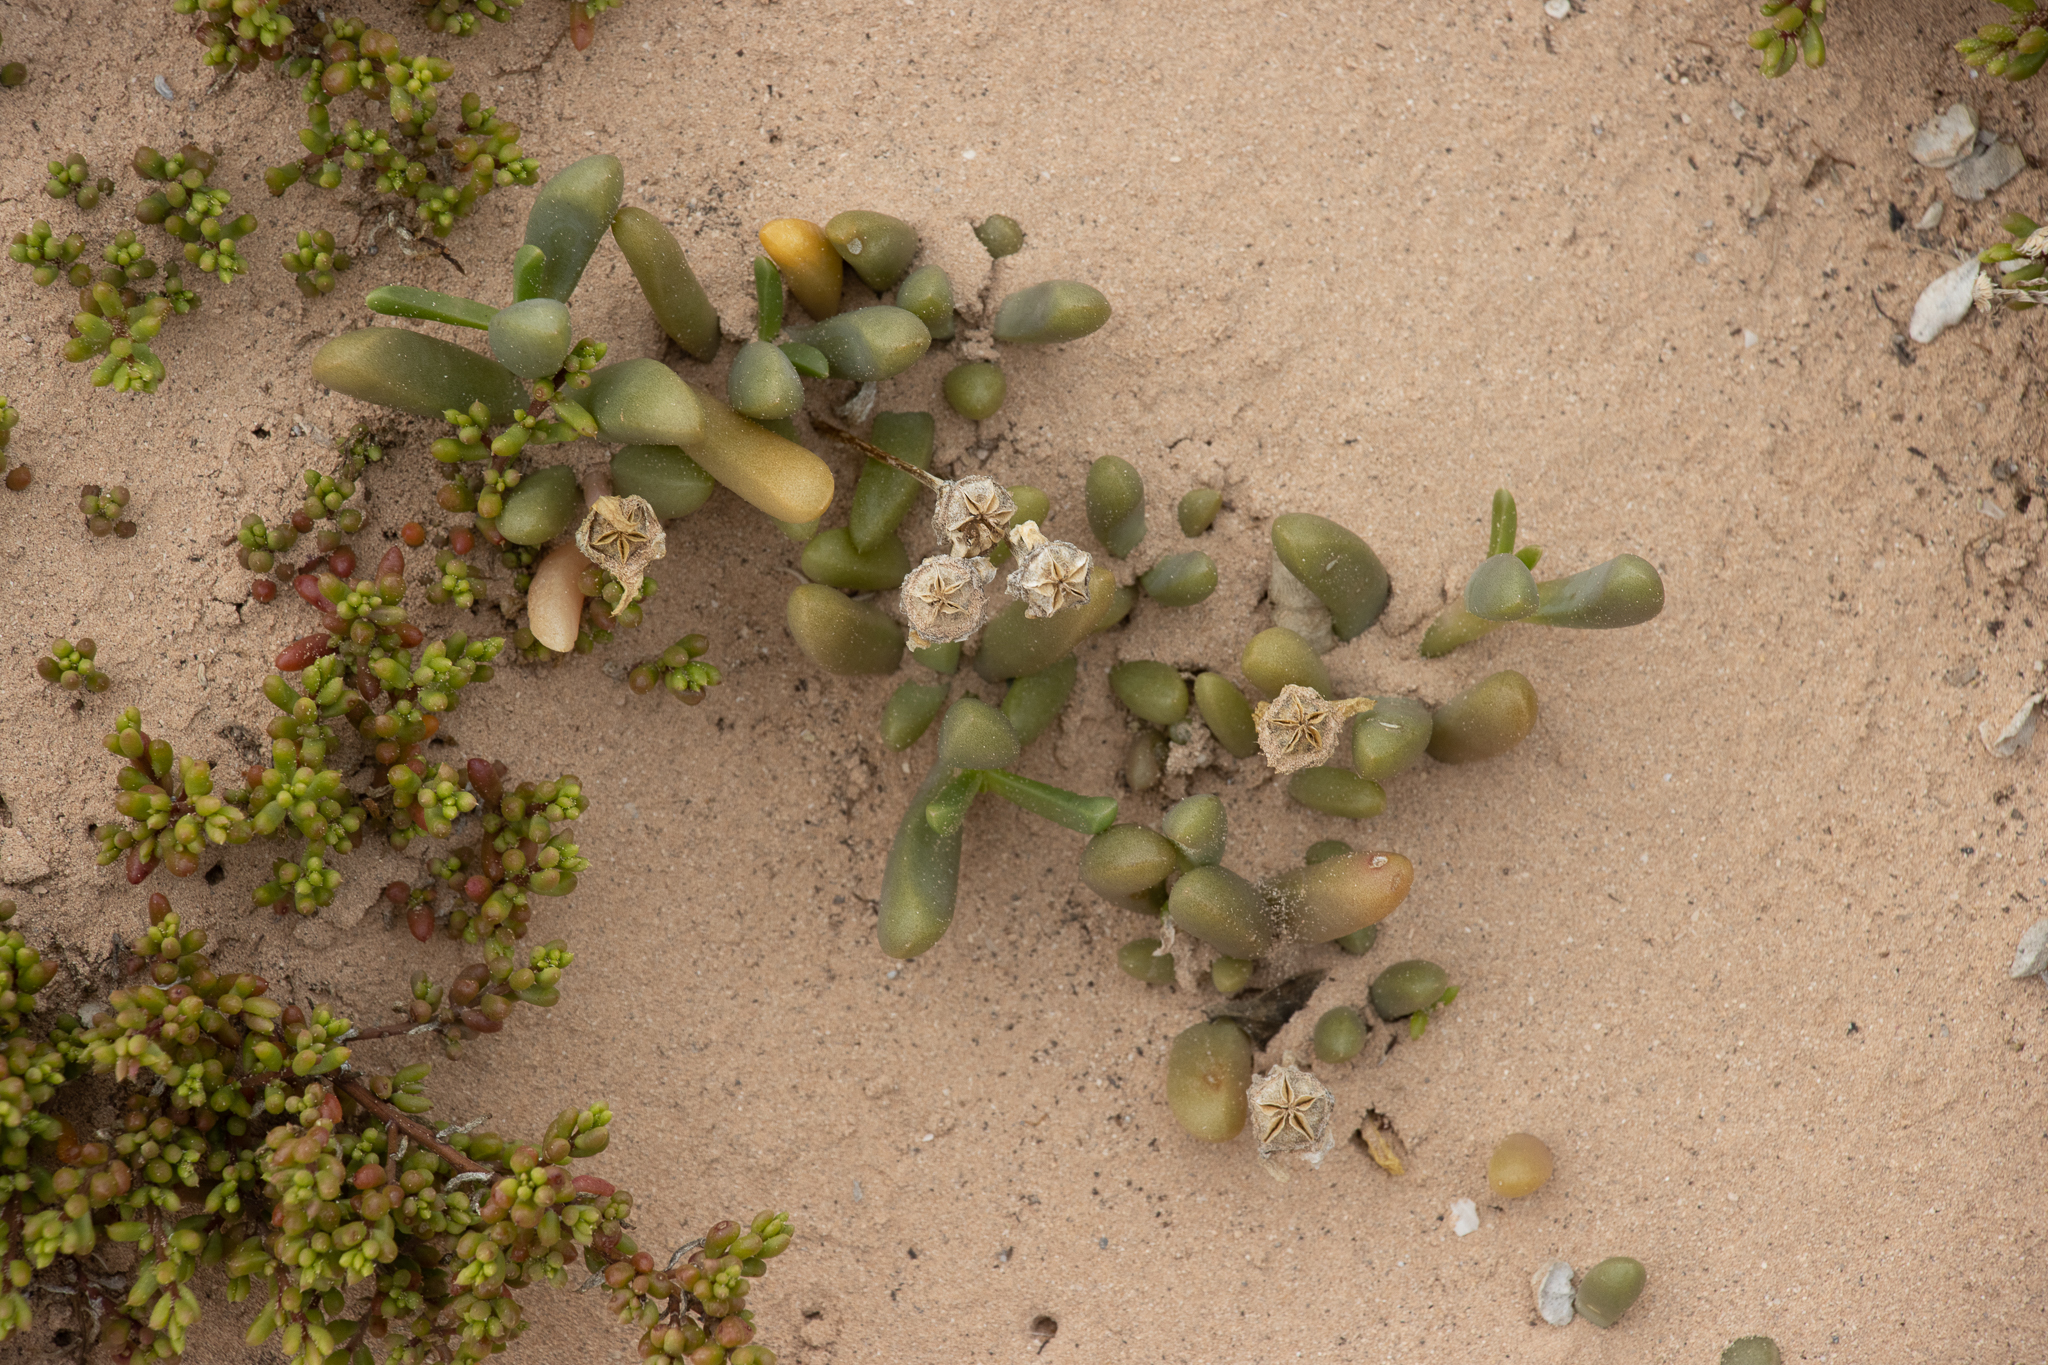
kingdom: Plantae
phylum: Tracheophyta
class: Magnoliopsida
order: Caryophyllales
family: Aizoaceae
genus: Disphyma
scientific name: Disphyma clavellatum
